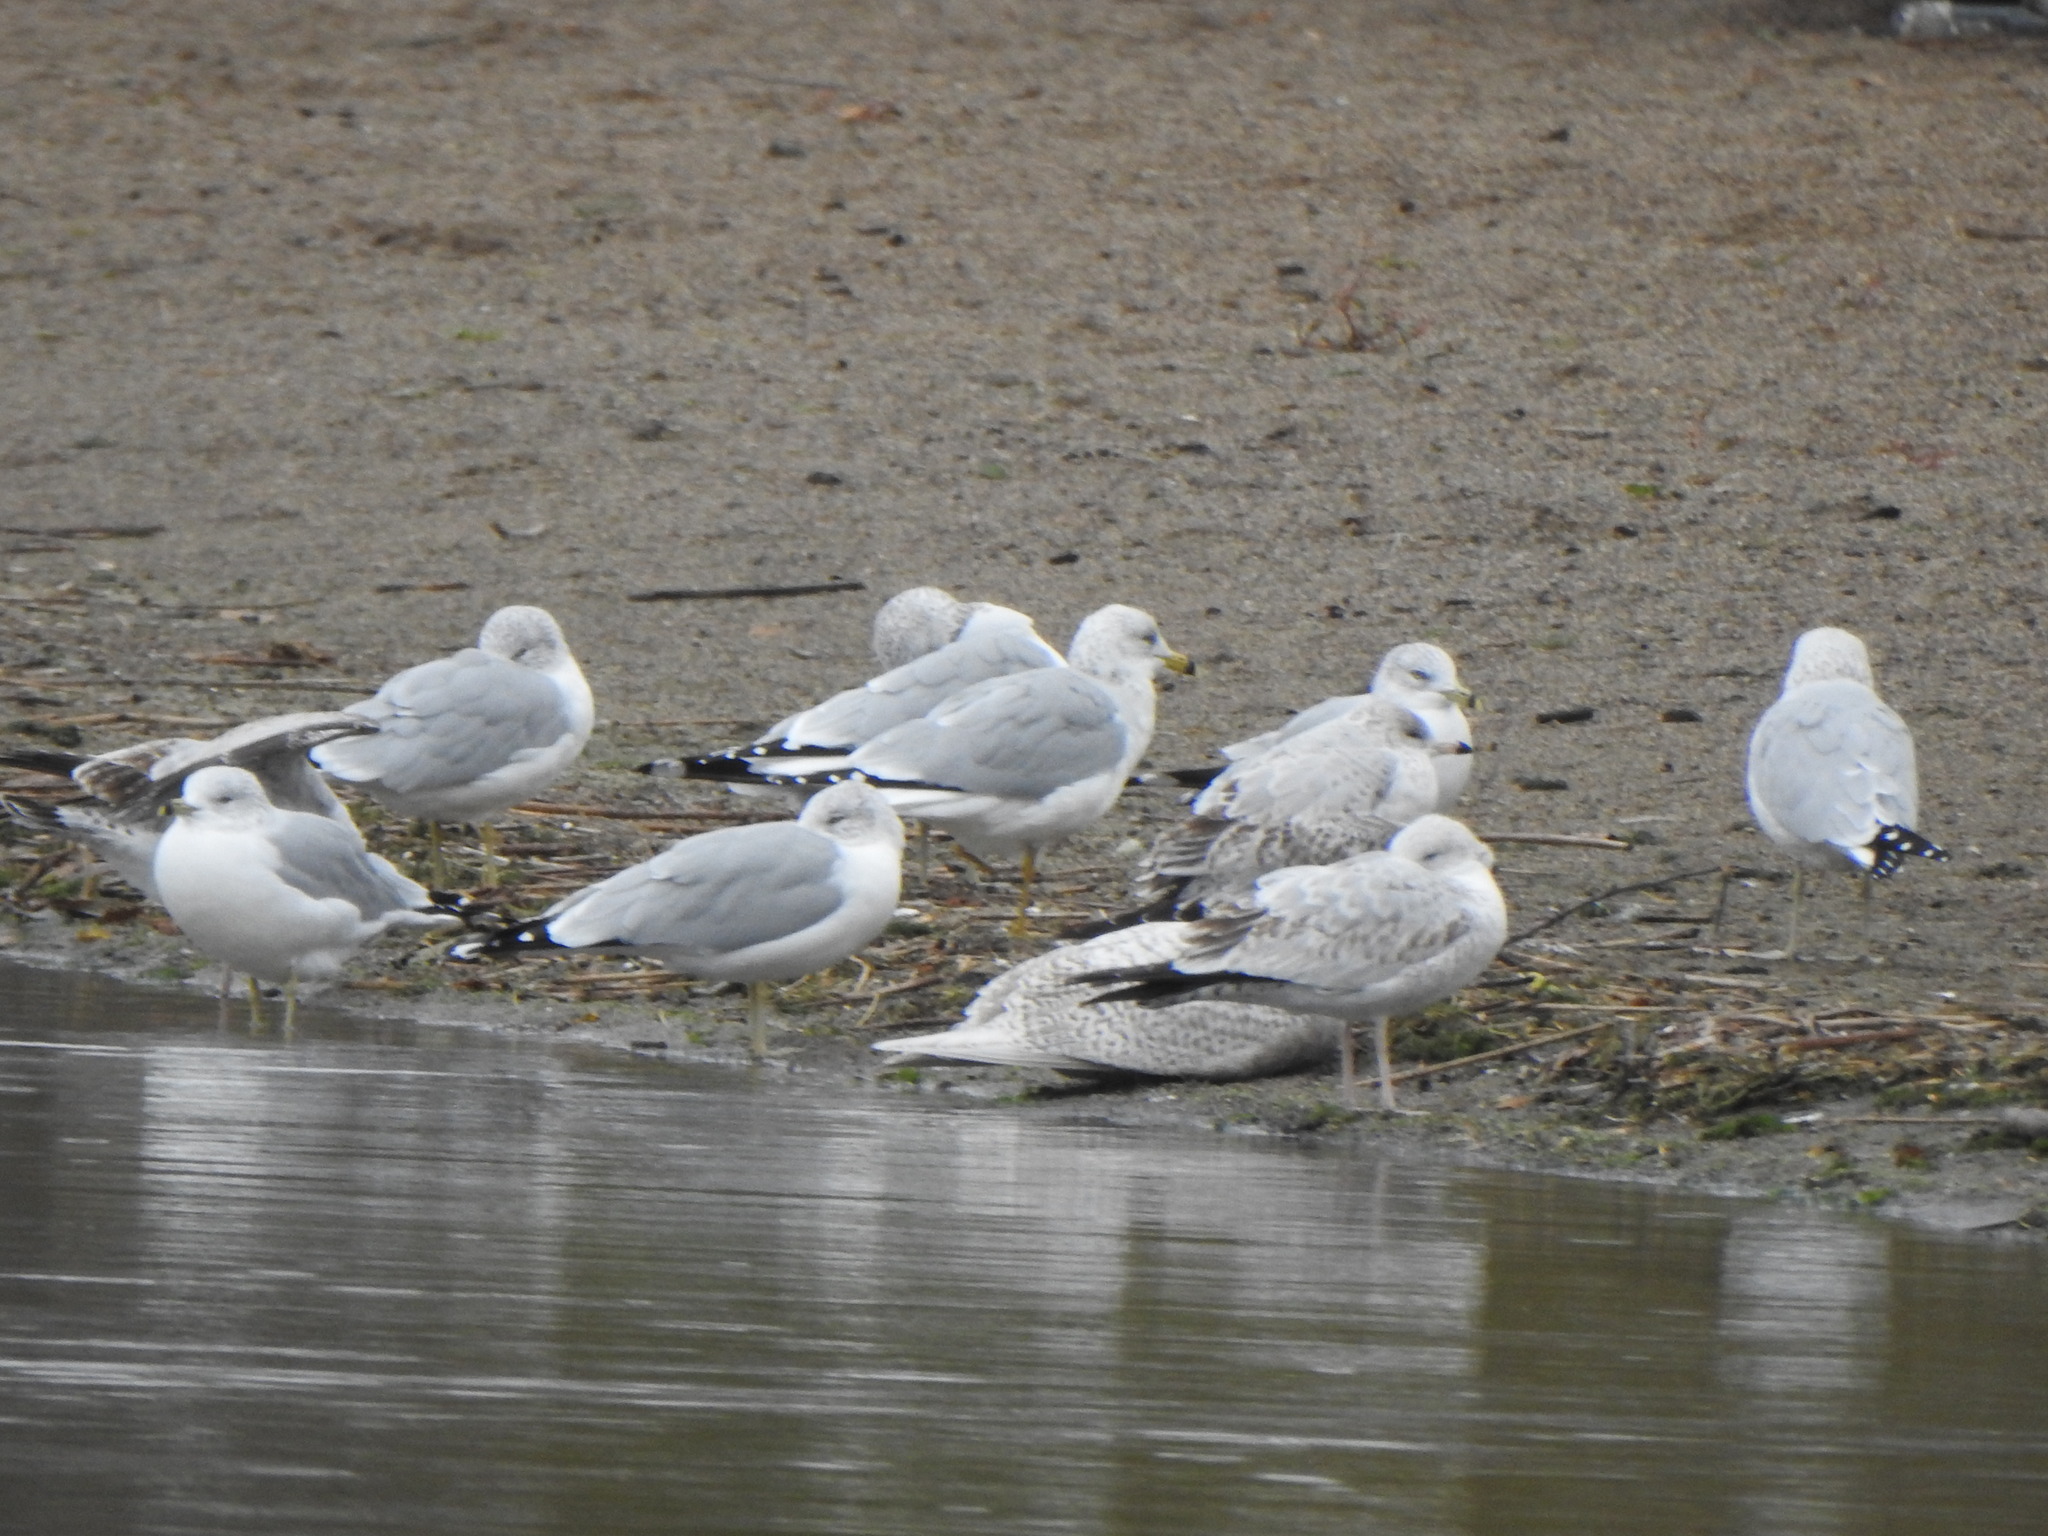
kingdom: Animalia
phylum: Chordata
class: Aves
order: Charadriiformes
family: Laridae
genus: Larus
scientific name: Larus glaucoides
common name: Iceland gull
